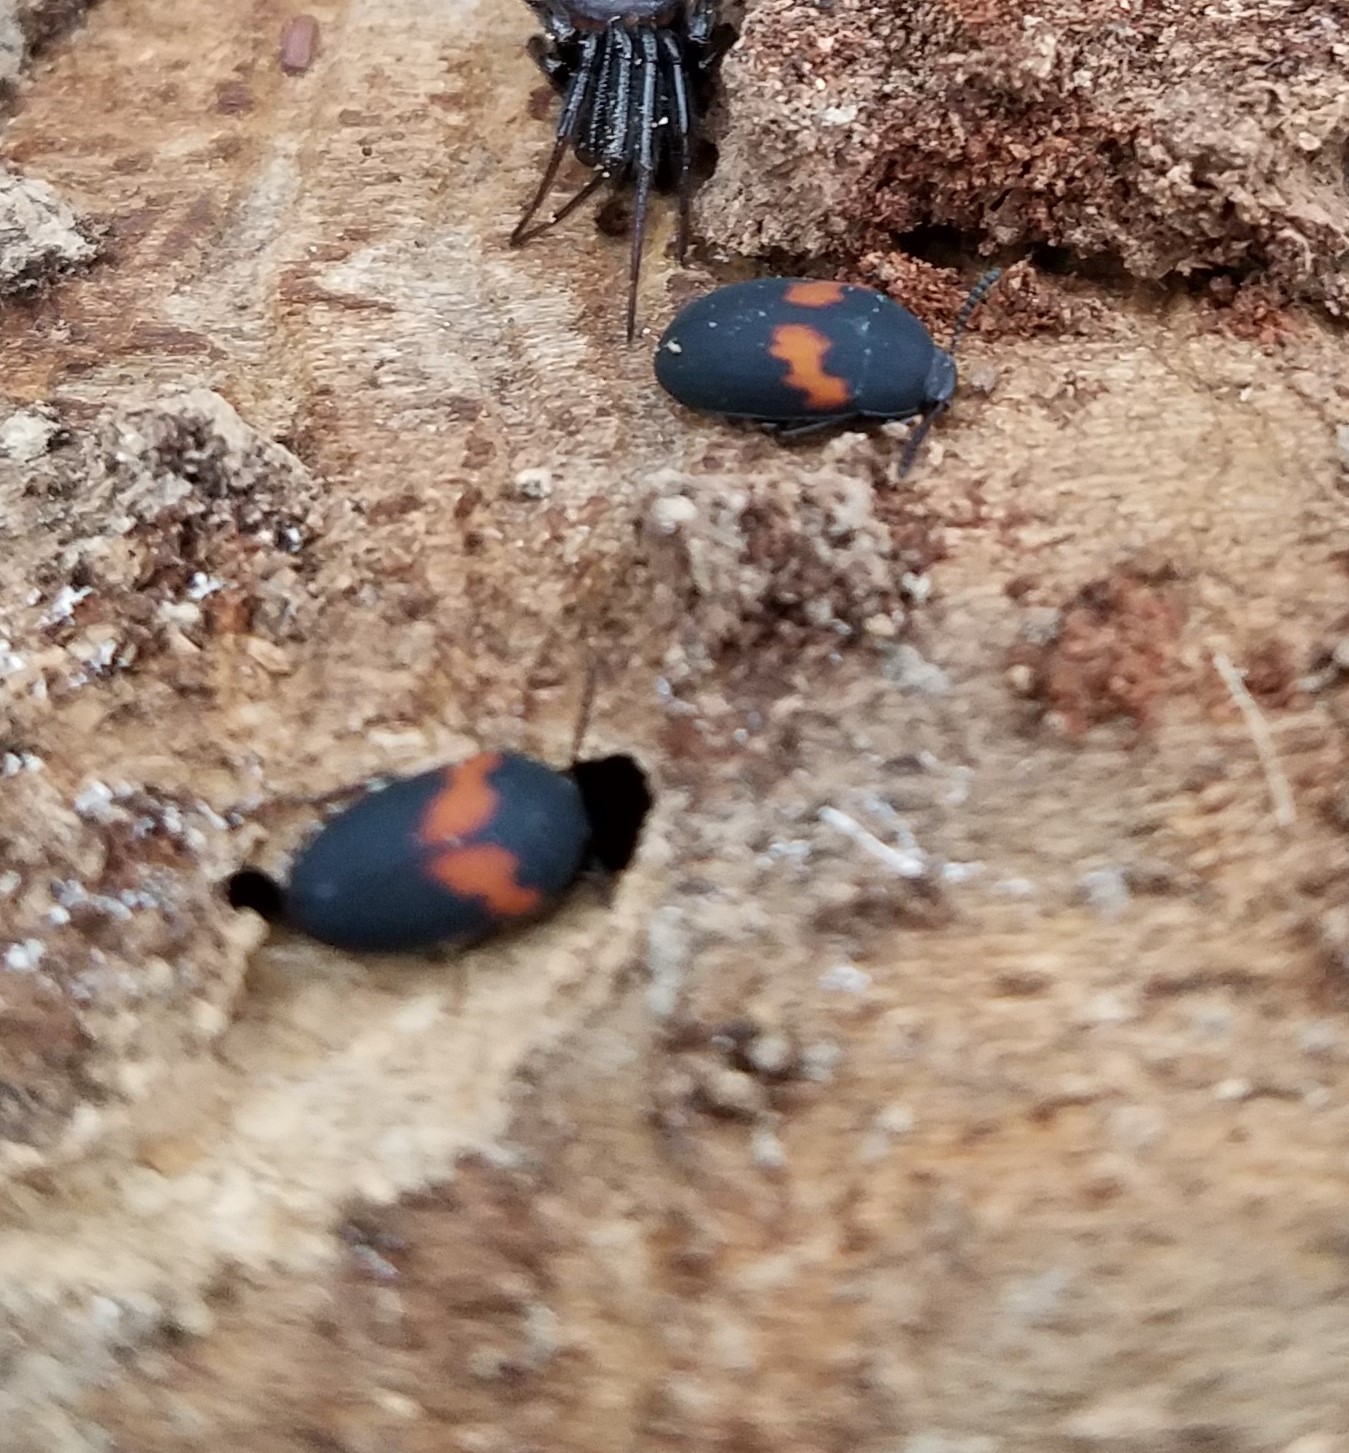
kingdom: Animalia
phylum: Arthropoda
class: Insecta
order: Coleoptera
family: Tenebrionidae
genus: Platydema
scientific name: Platydema elliptica
